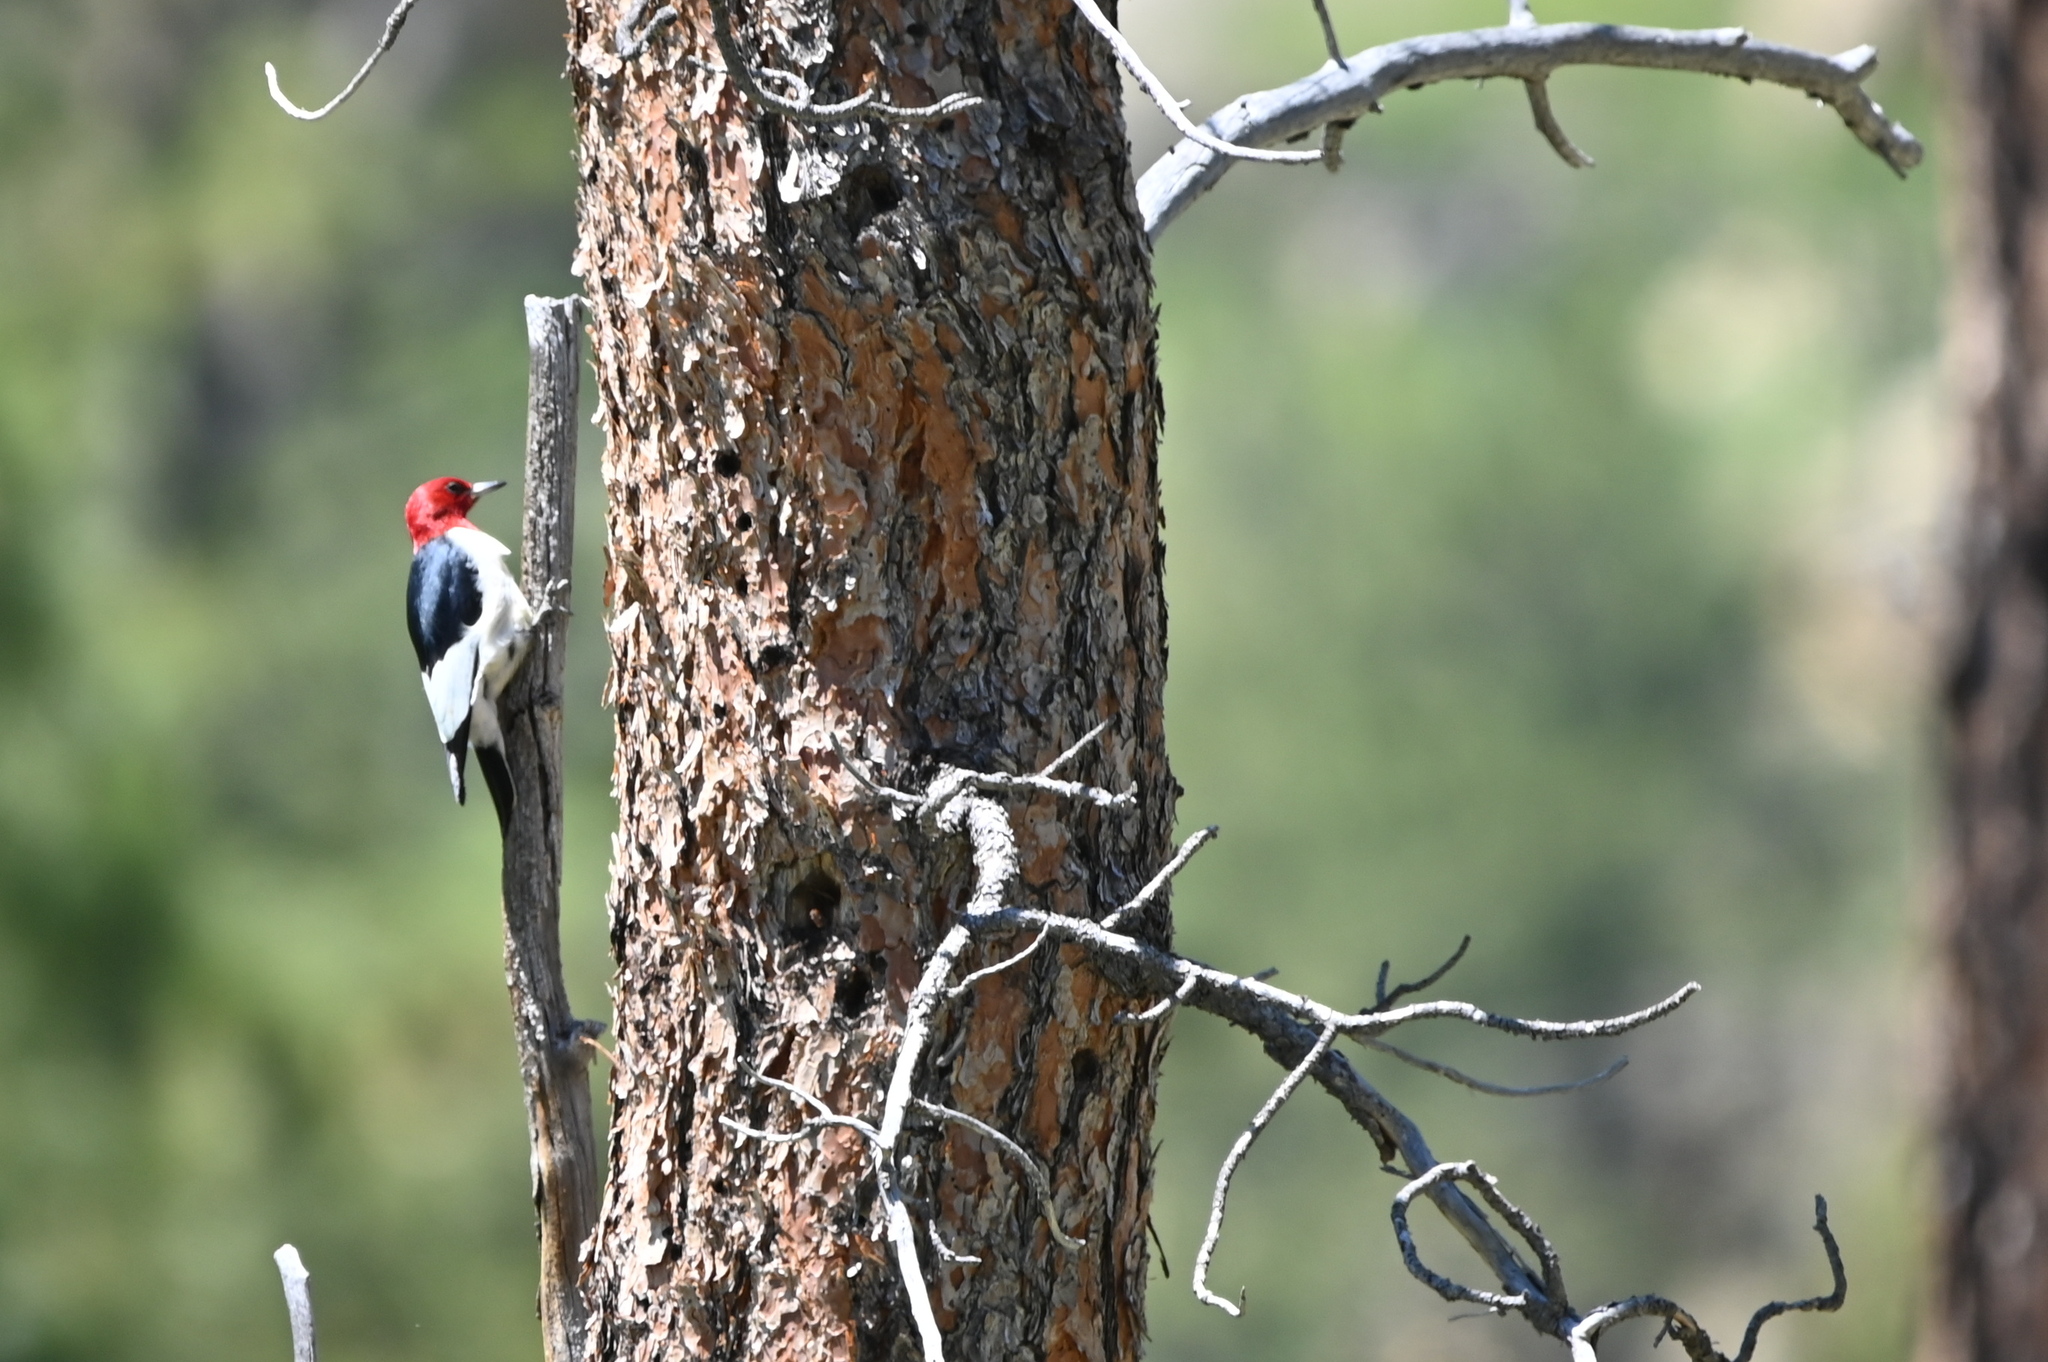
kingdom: Animalia
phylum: Chordata
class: Aves
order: Piciformes
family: Picidae
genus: Melanerpes
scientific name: Melanerpes erythrocephalus
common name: Red-headed woodpecker
